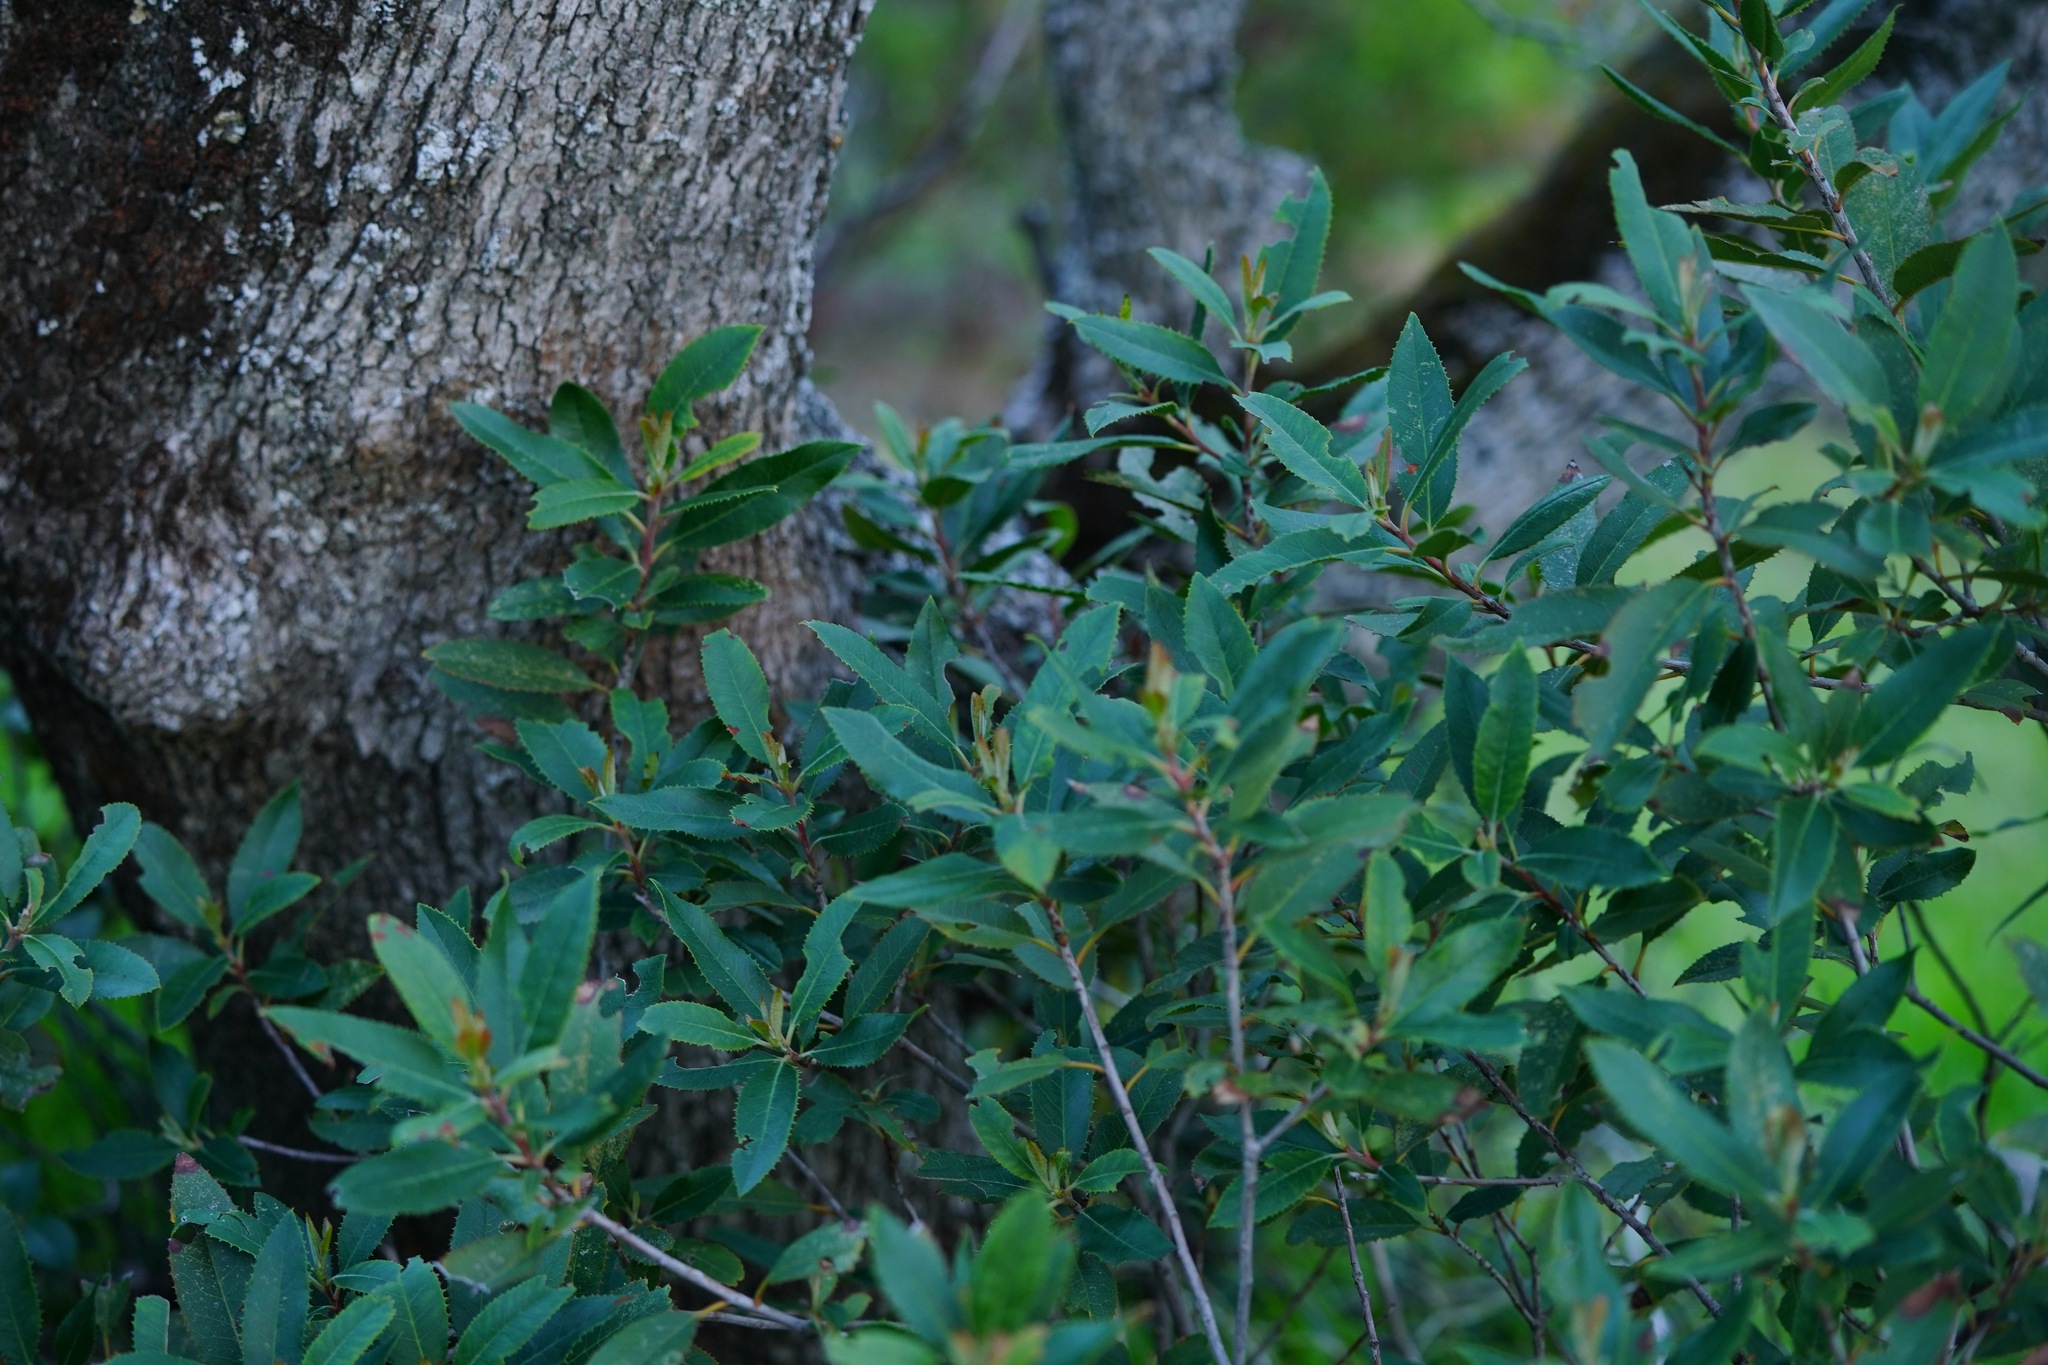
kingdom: Plantae
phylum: Tracheophyta
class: Magnoliopsida
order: Rosales
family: Rosaceae
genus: Heteromeles
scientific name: Heteromeles arbutifolia
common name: California-holly
